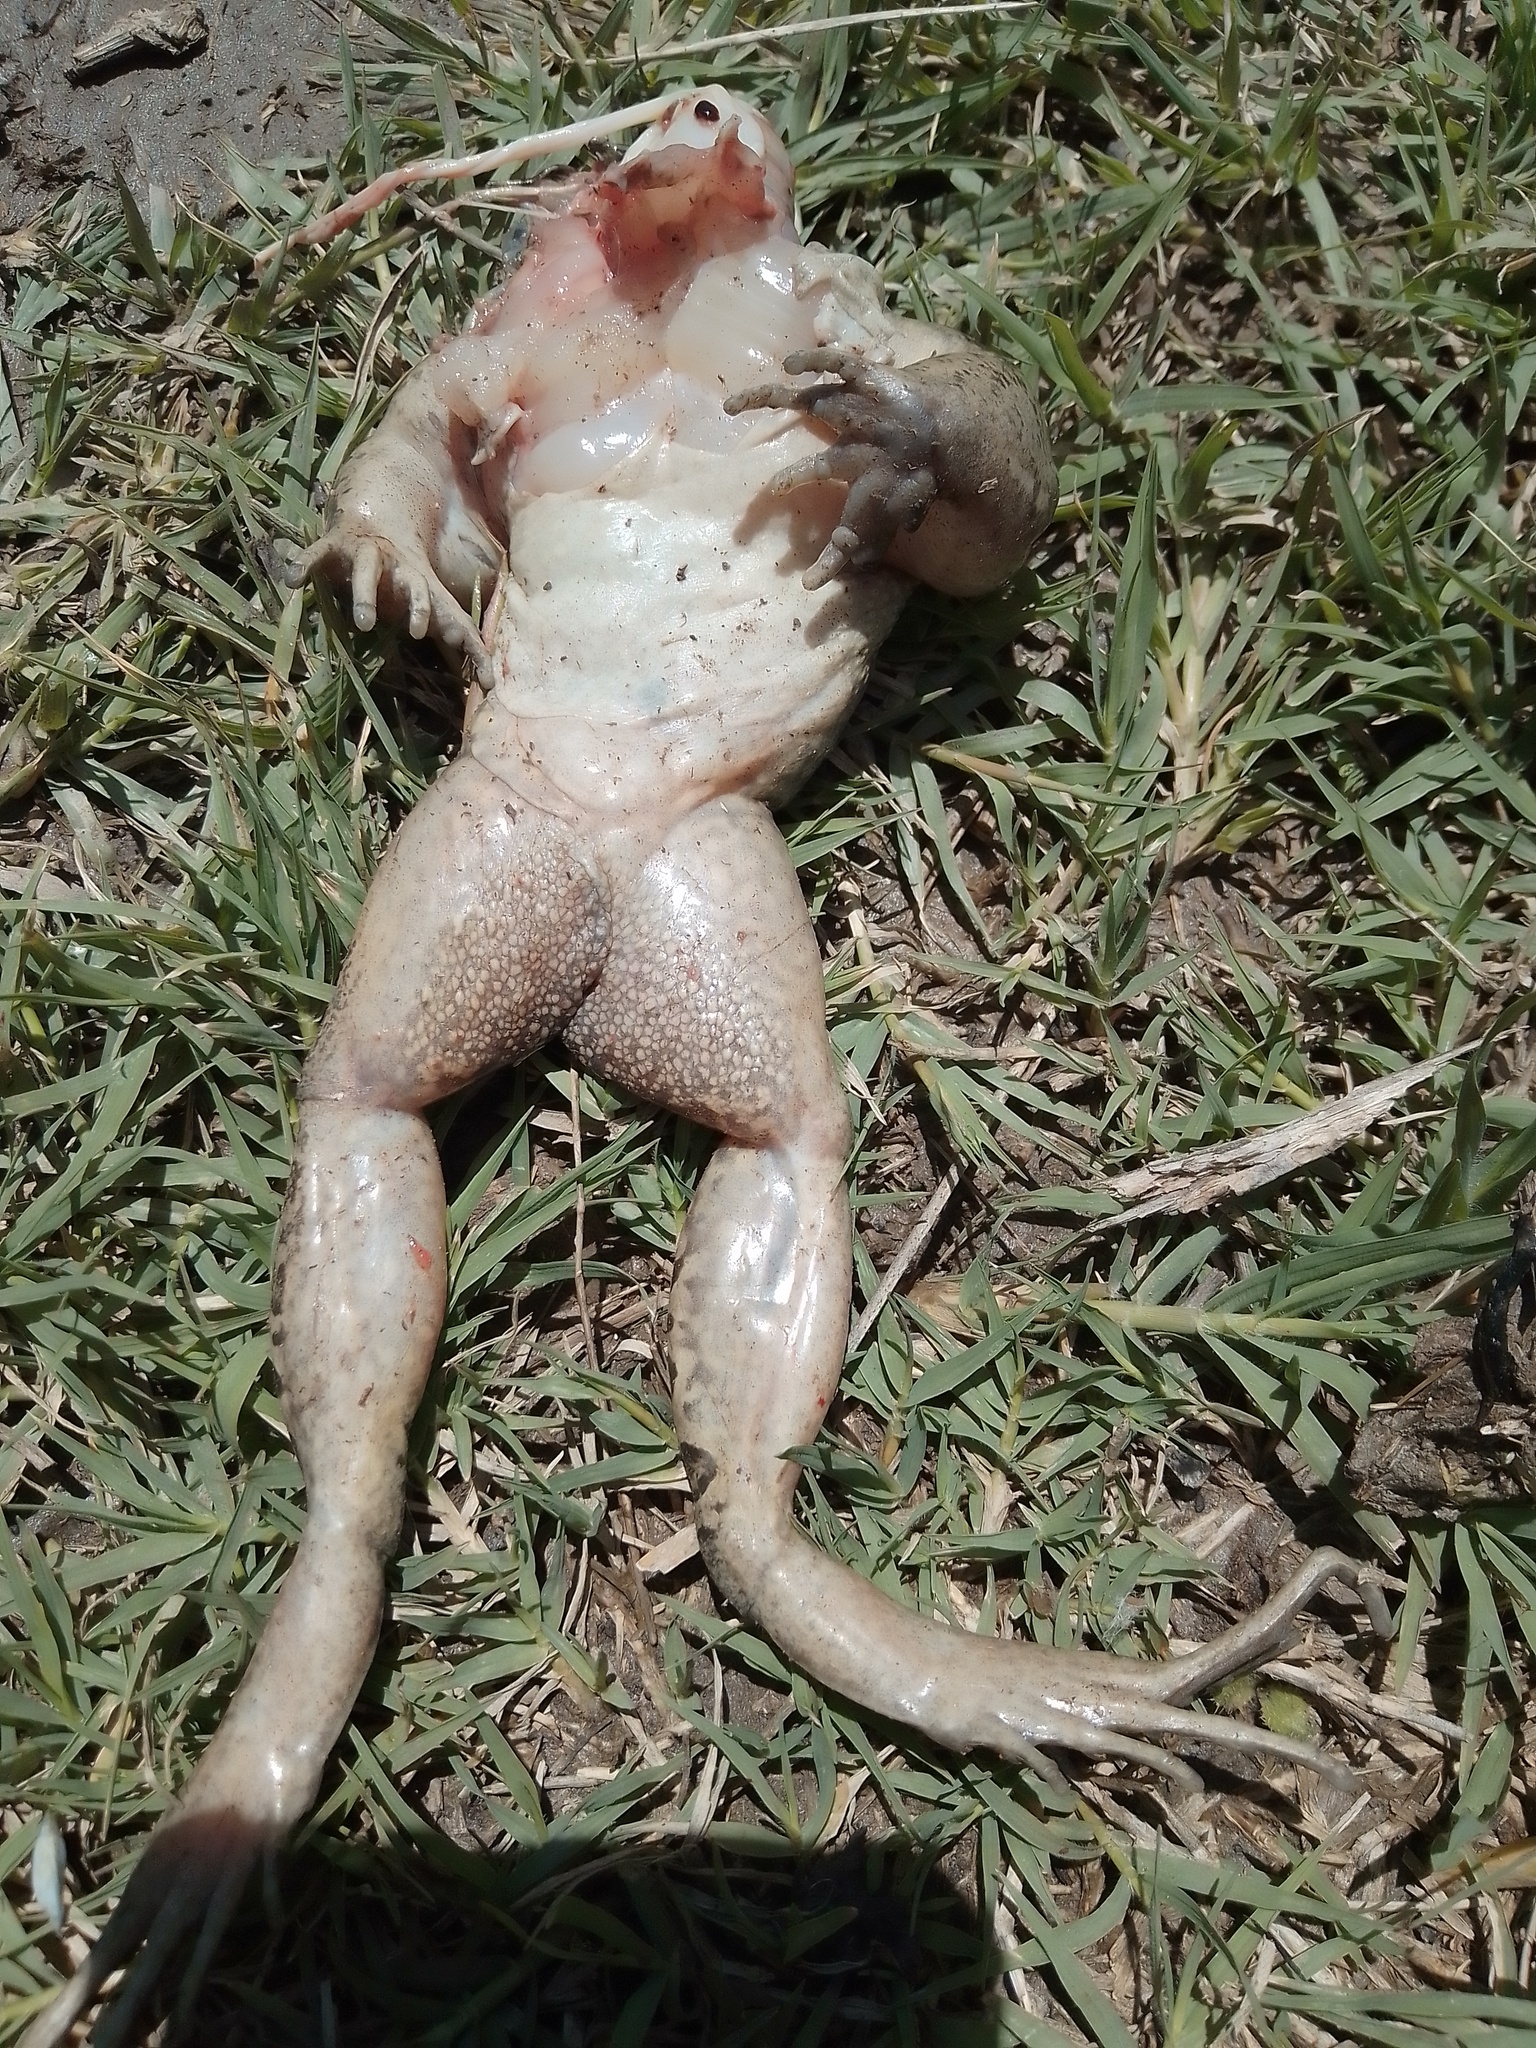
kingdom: Animalia
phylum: Chordata
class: Amphibia
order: Anura
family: Leptodactylidae
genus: Leptodactylus
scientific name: Leptodactylus luctator
